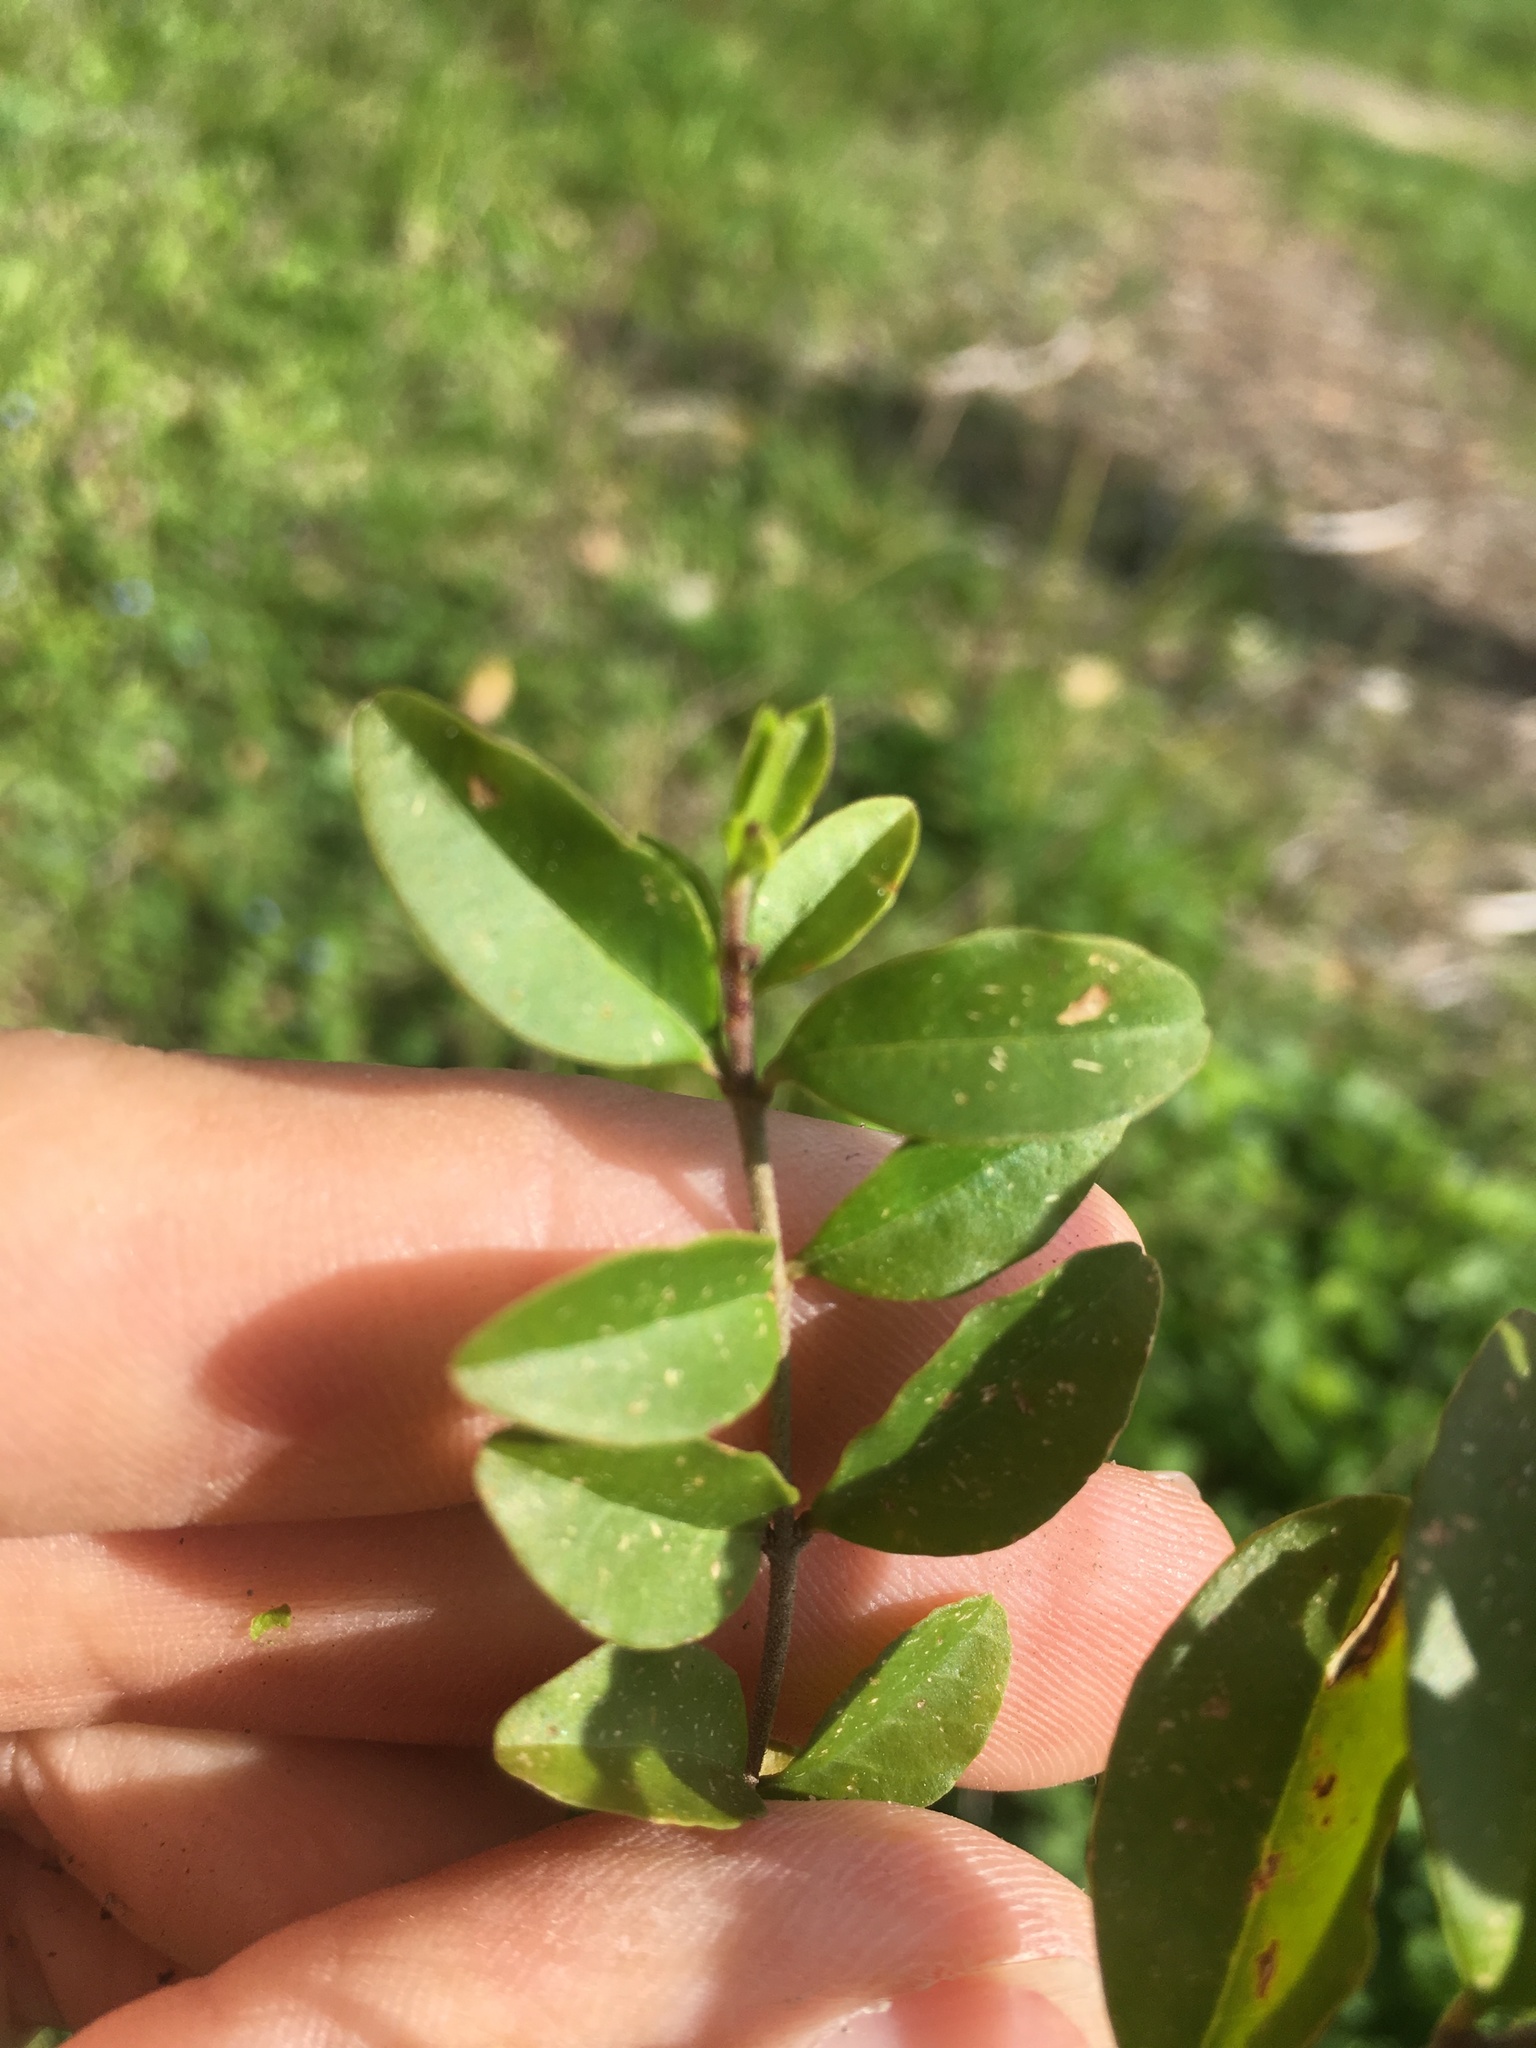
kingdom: Plantae
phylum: Tracheophyta
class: Magnoliopsida
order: Lamiales
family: Oleaceae
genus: Ligustrum
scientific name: Ligustrum vulgare
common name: Wild privet
